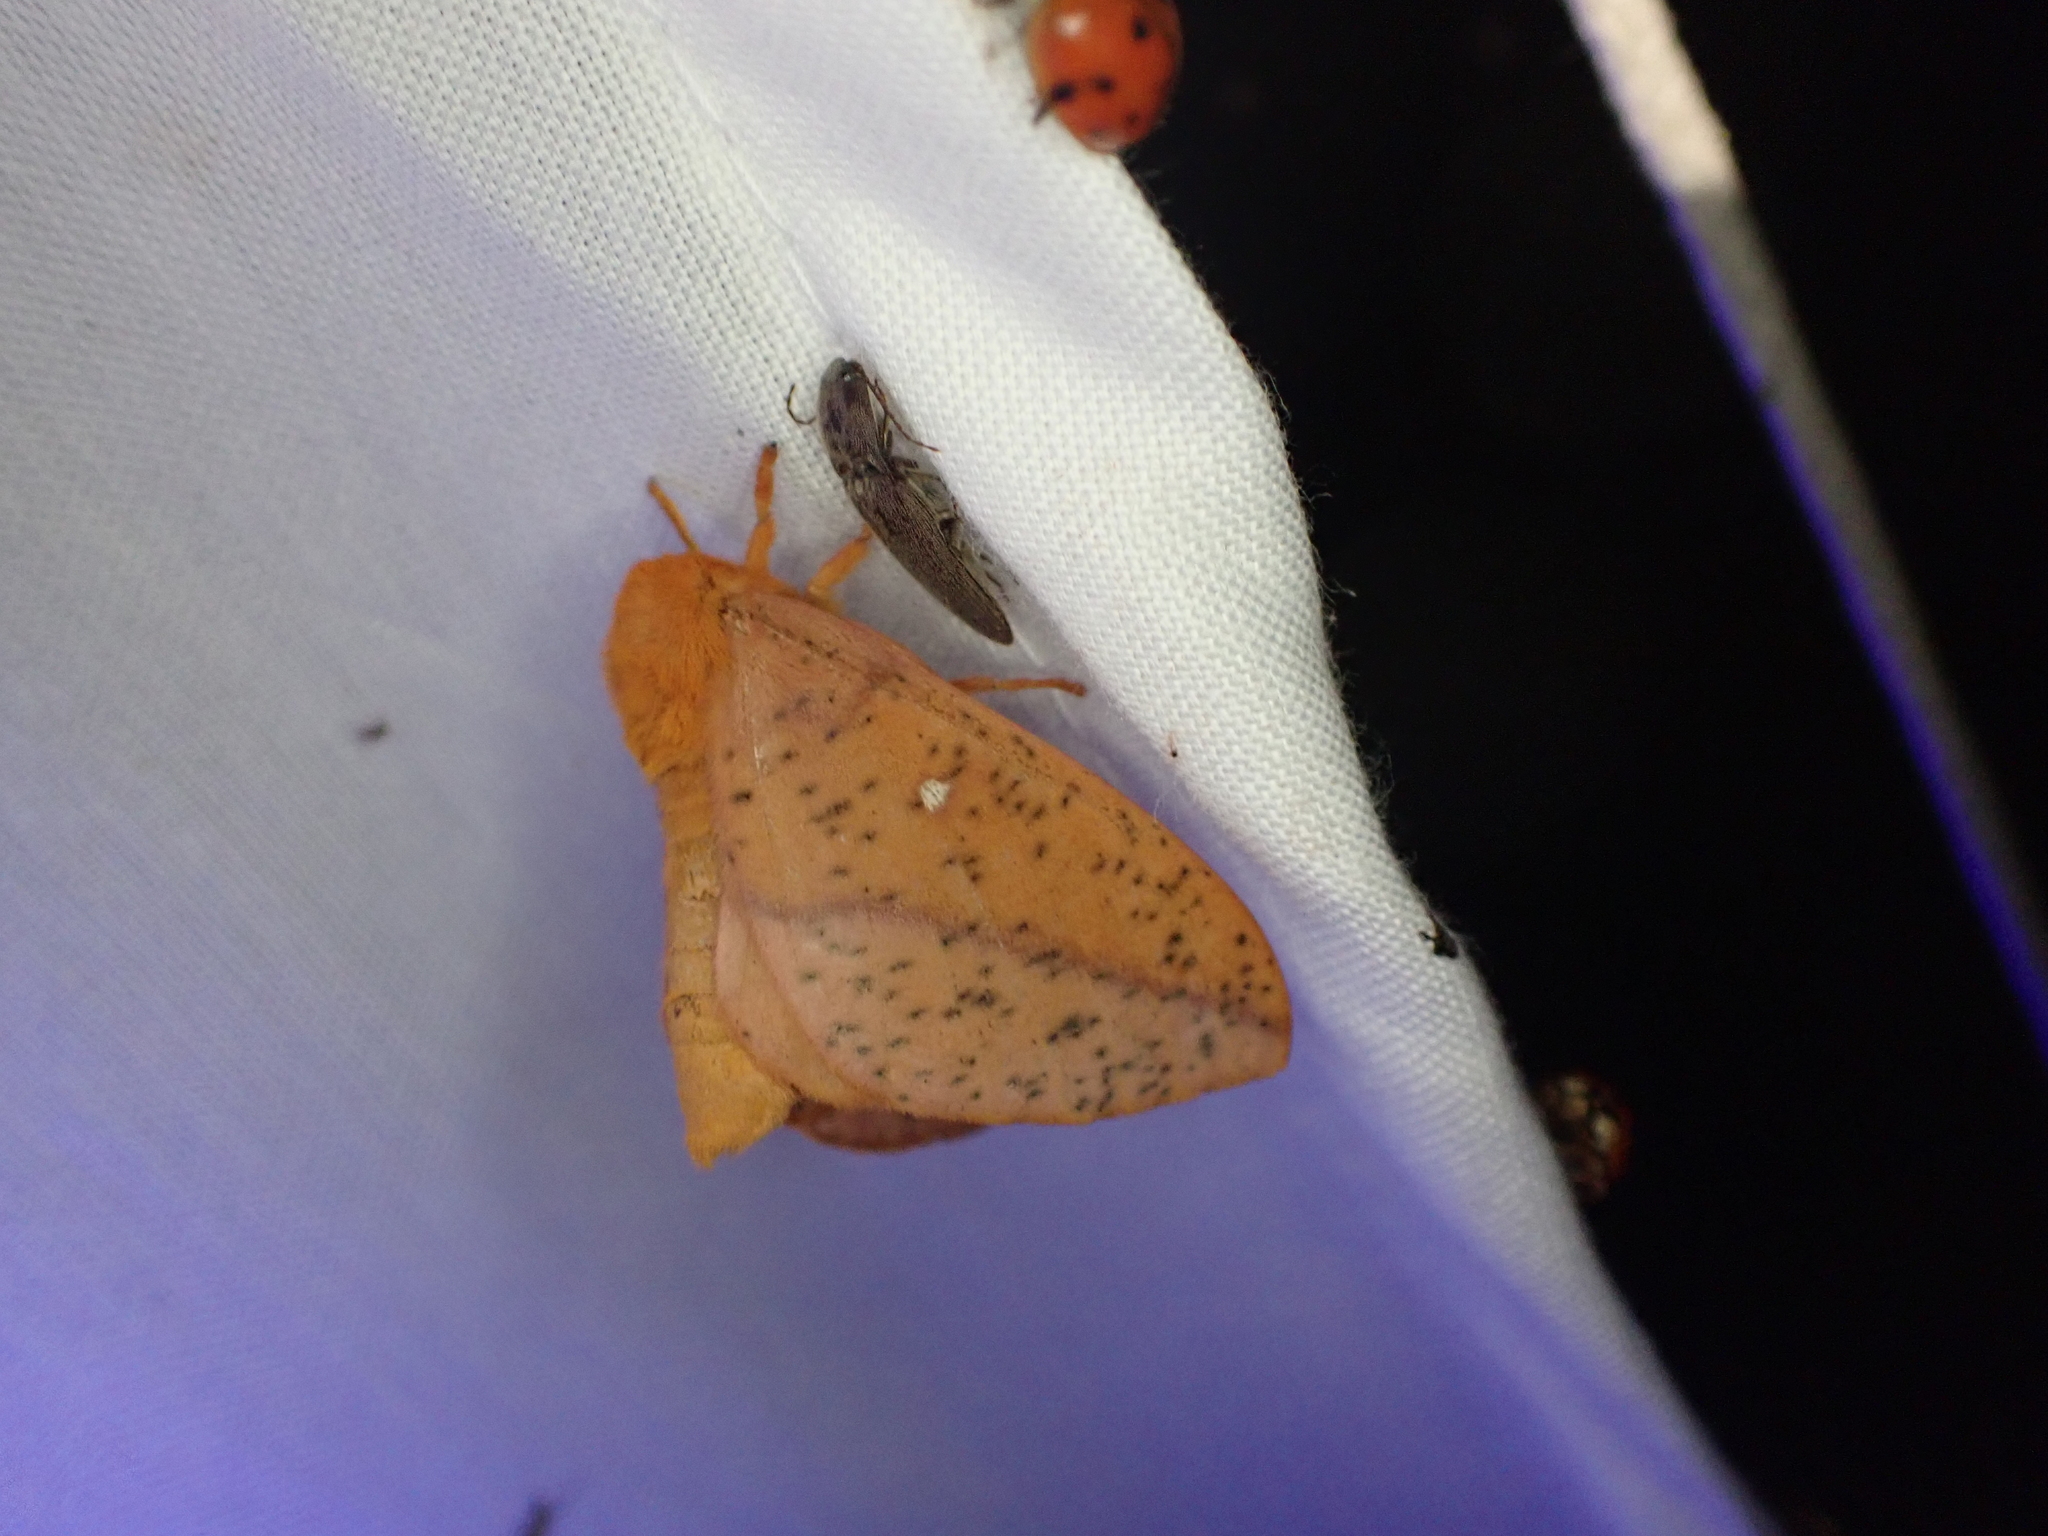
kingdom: Animalia
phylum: Arthropoda
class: Insecta
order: Lepidoptera
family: Saturniidae
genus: Anisota
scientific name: Anisota senatoria
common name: Orange-striped oakworm moth
